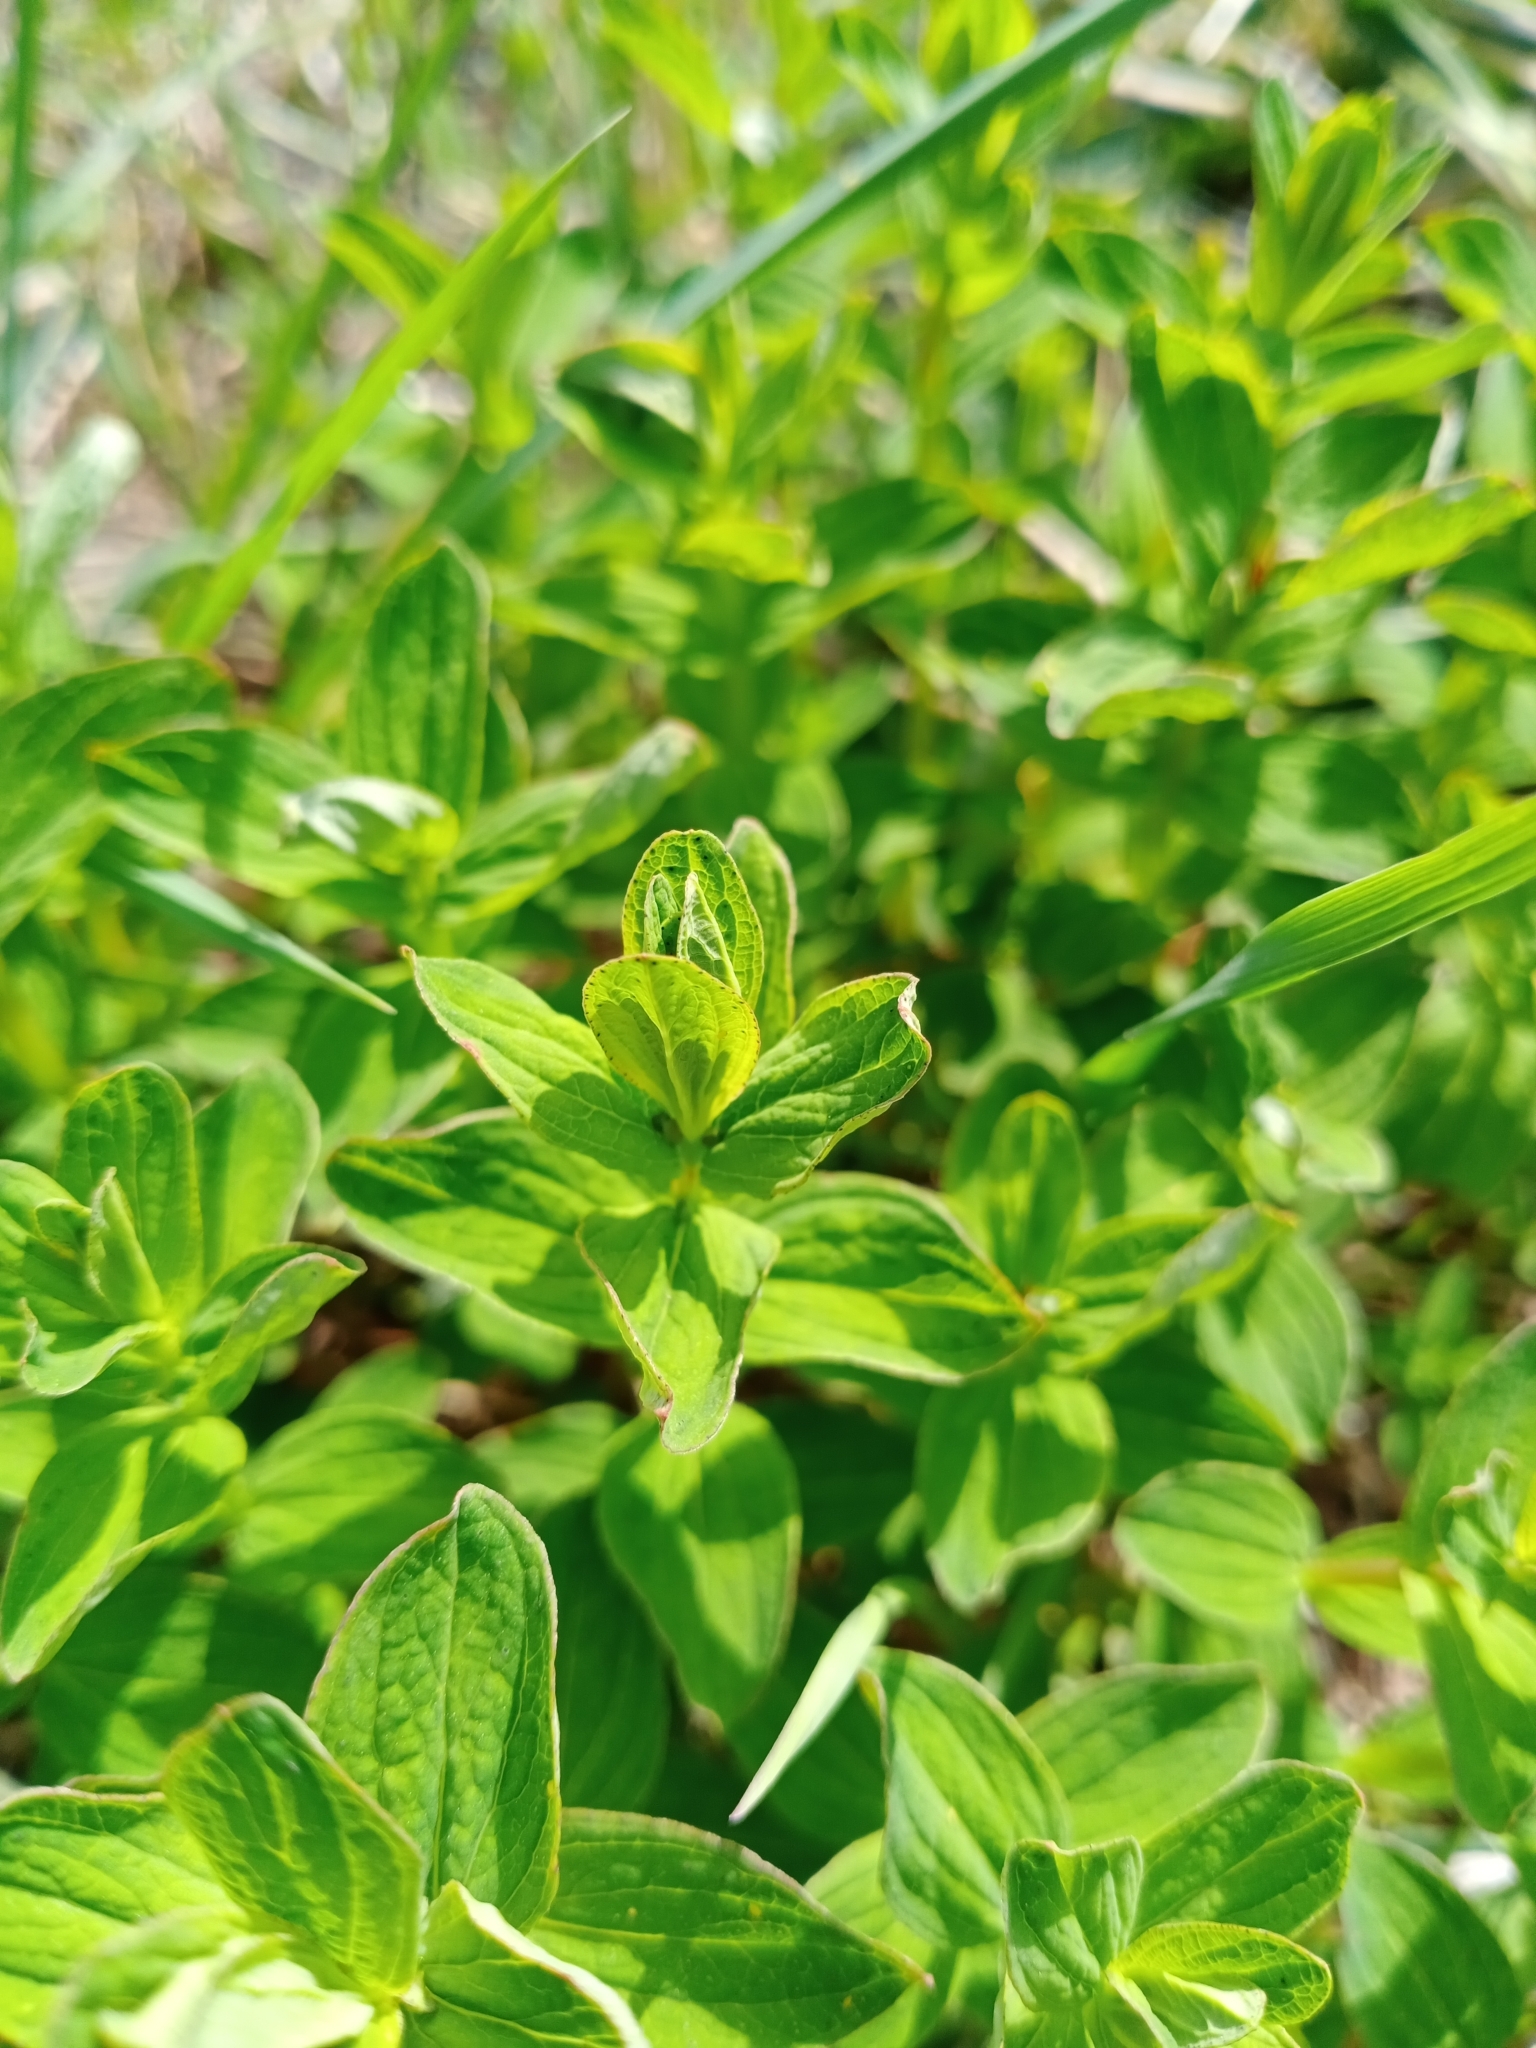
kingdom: Plantae
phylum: Tracheophyta
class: Magnoliopsida
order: Malpighiales
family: Hypericaceae
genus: Hypericum
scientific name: Hypericum maculatum
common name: Imperforate st. john's-wort
